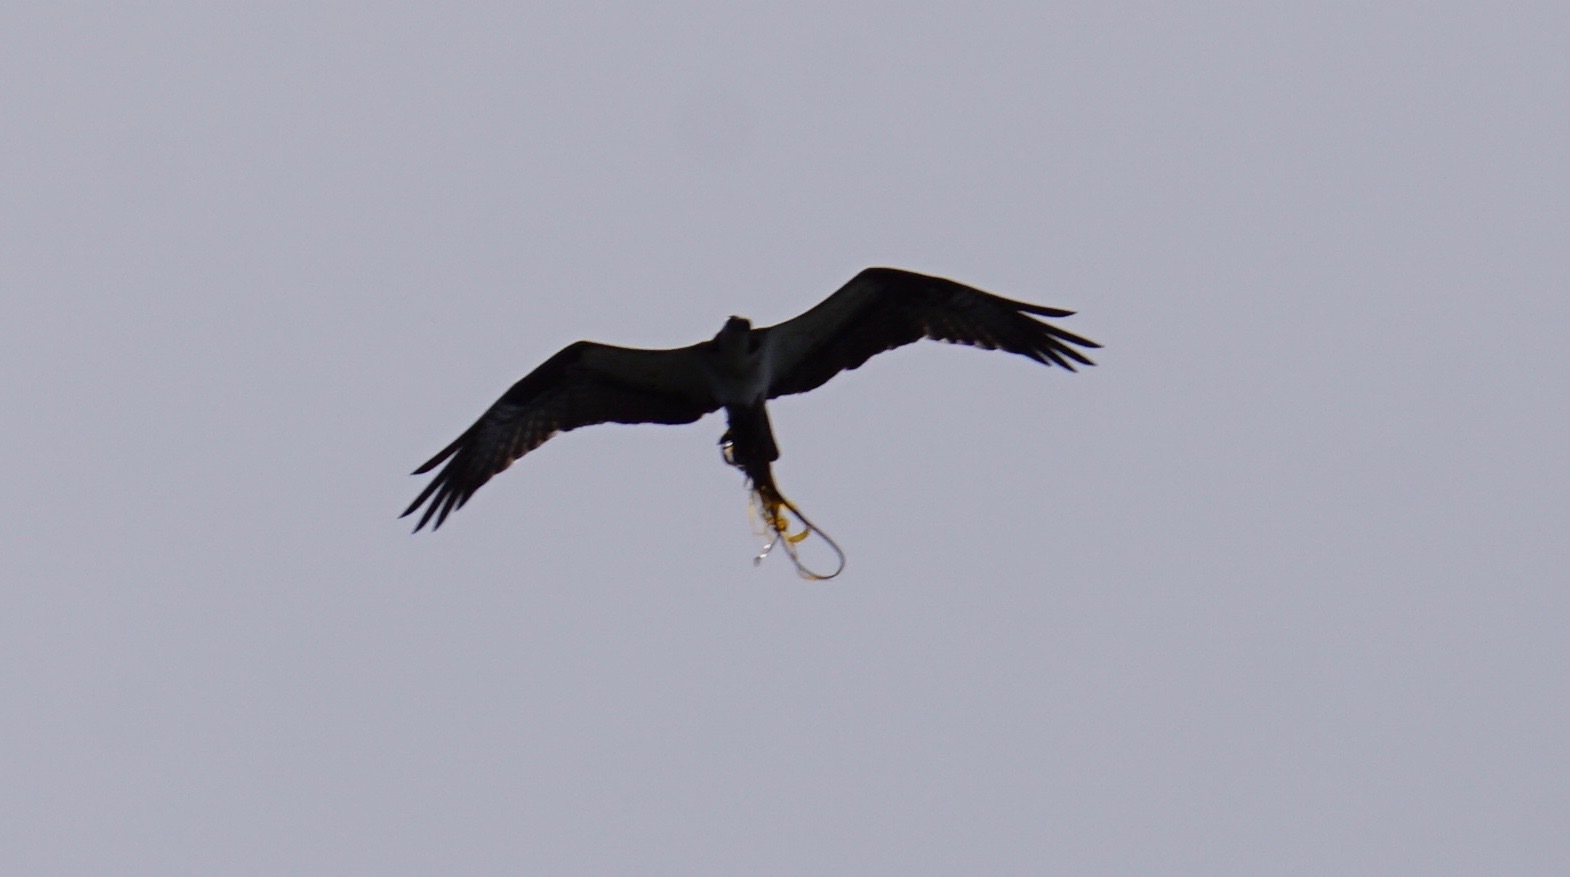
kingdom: Animalia
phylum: Chordata
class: Aves
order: Accipitriformes
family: Pandionidae
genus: Pandion
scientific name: Pandion haliaetus
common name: Osprey
